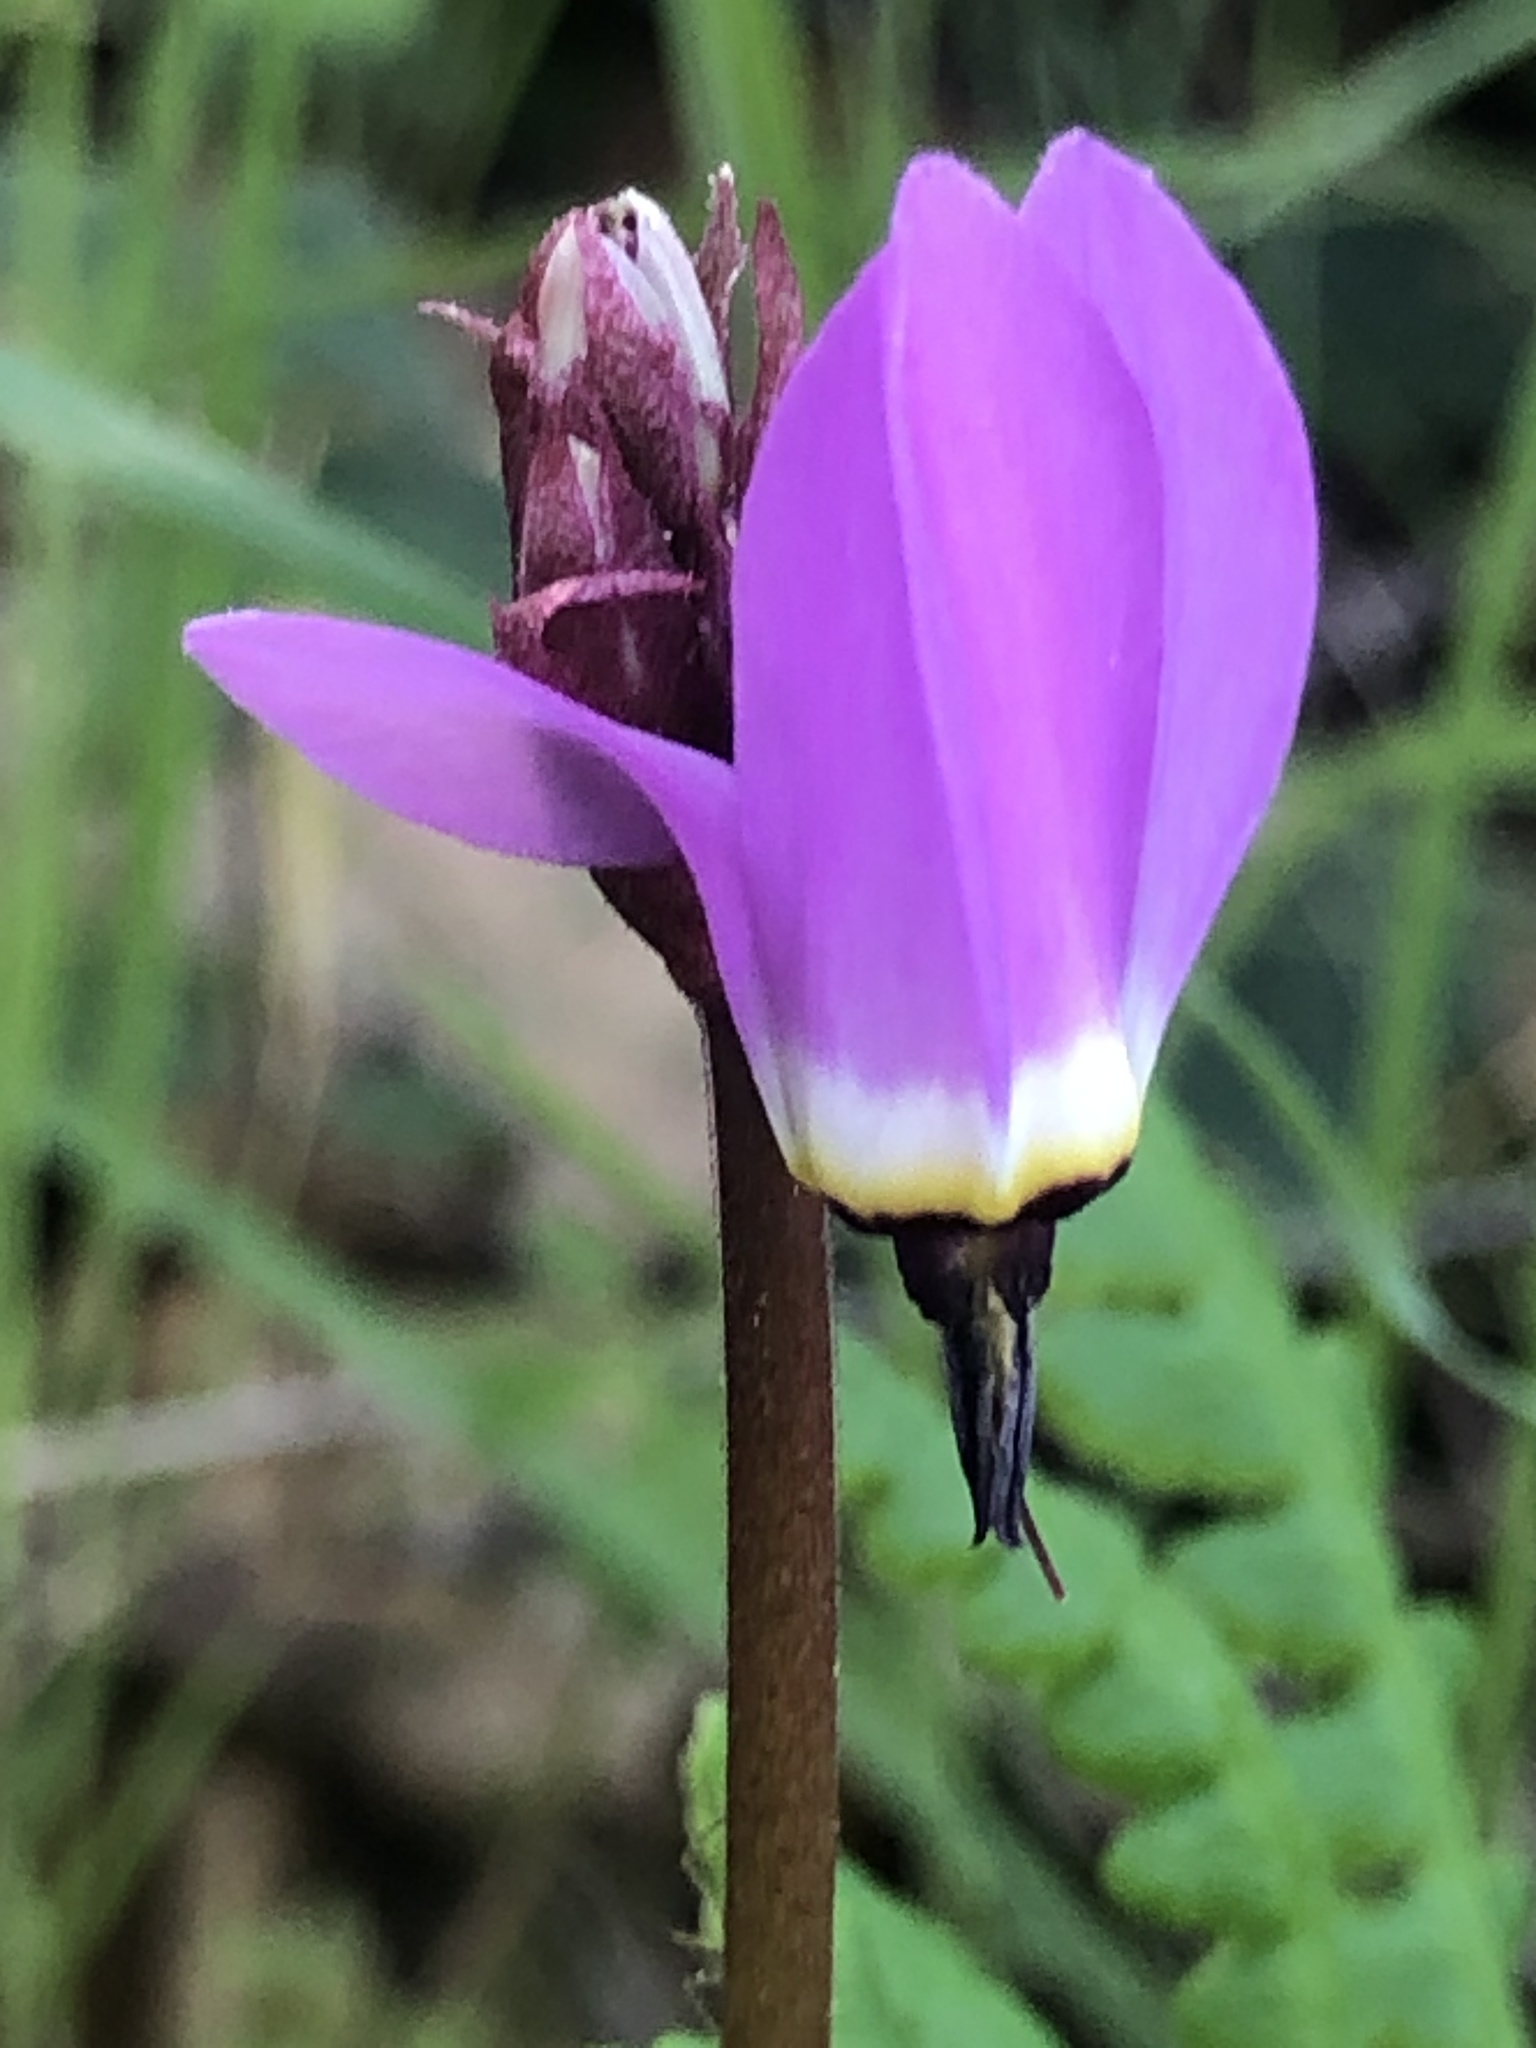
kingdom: Plantae
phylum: Tracheophyta
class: Magnoliopsida
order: Ericales
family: Primulaceae
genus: Dodecatheon
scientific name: Dodecatheon hendersonii
